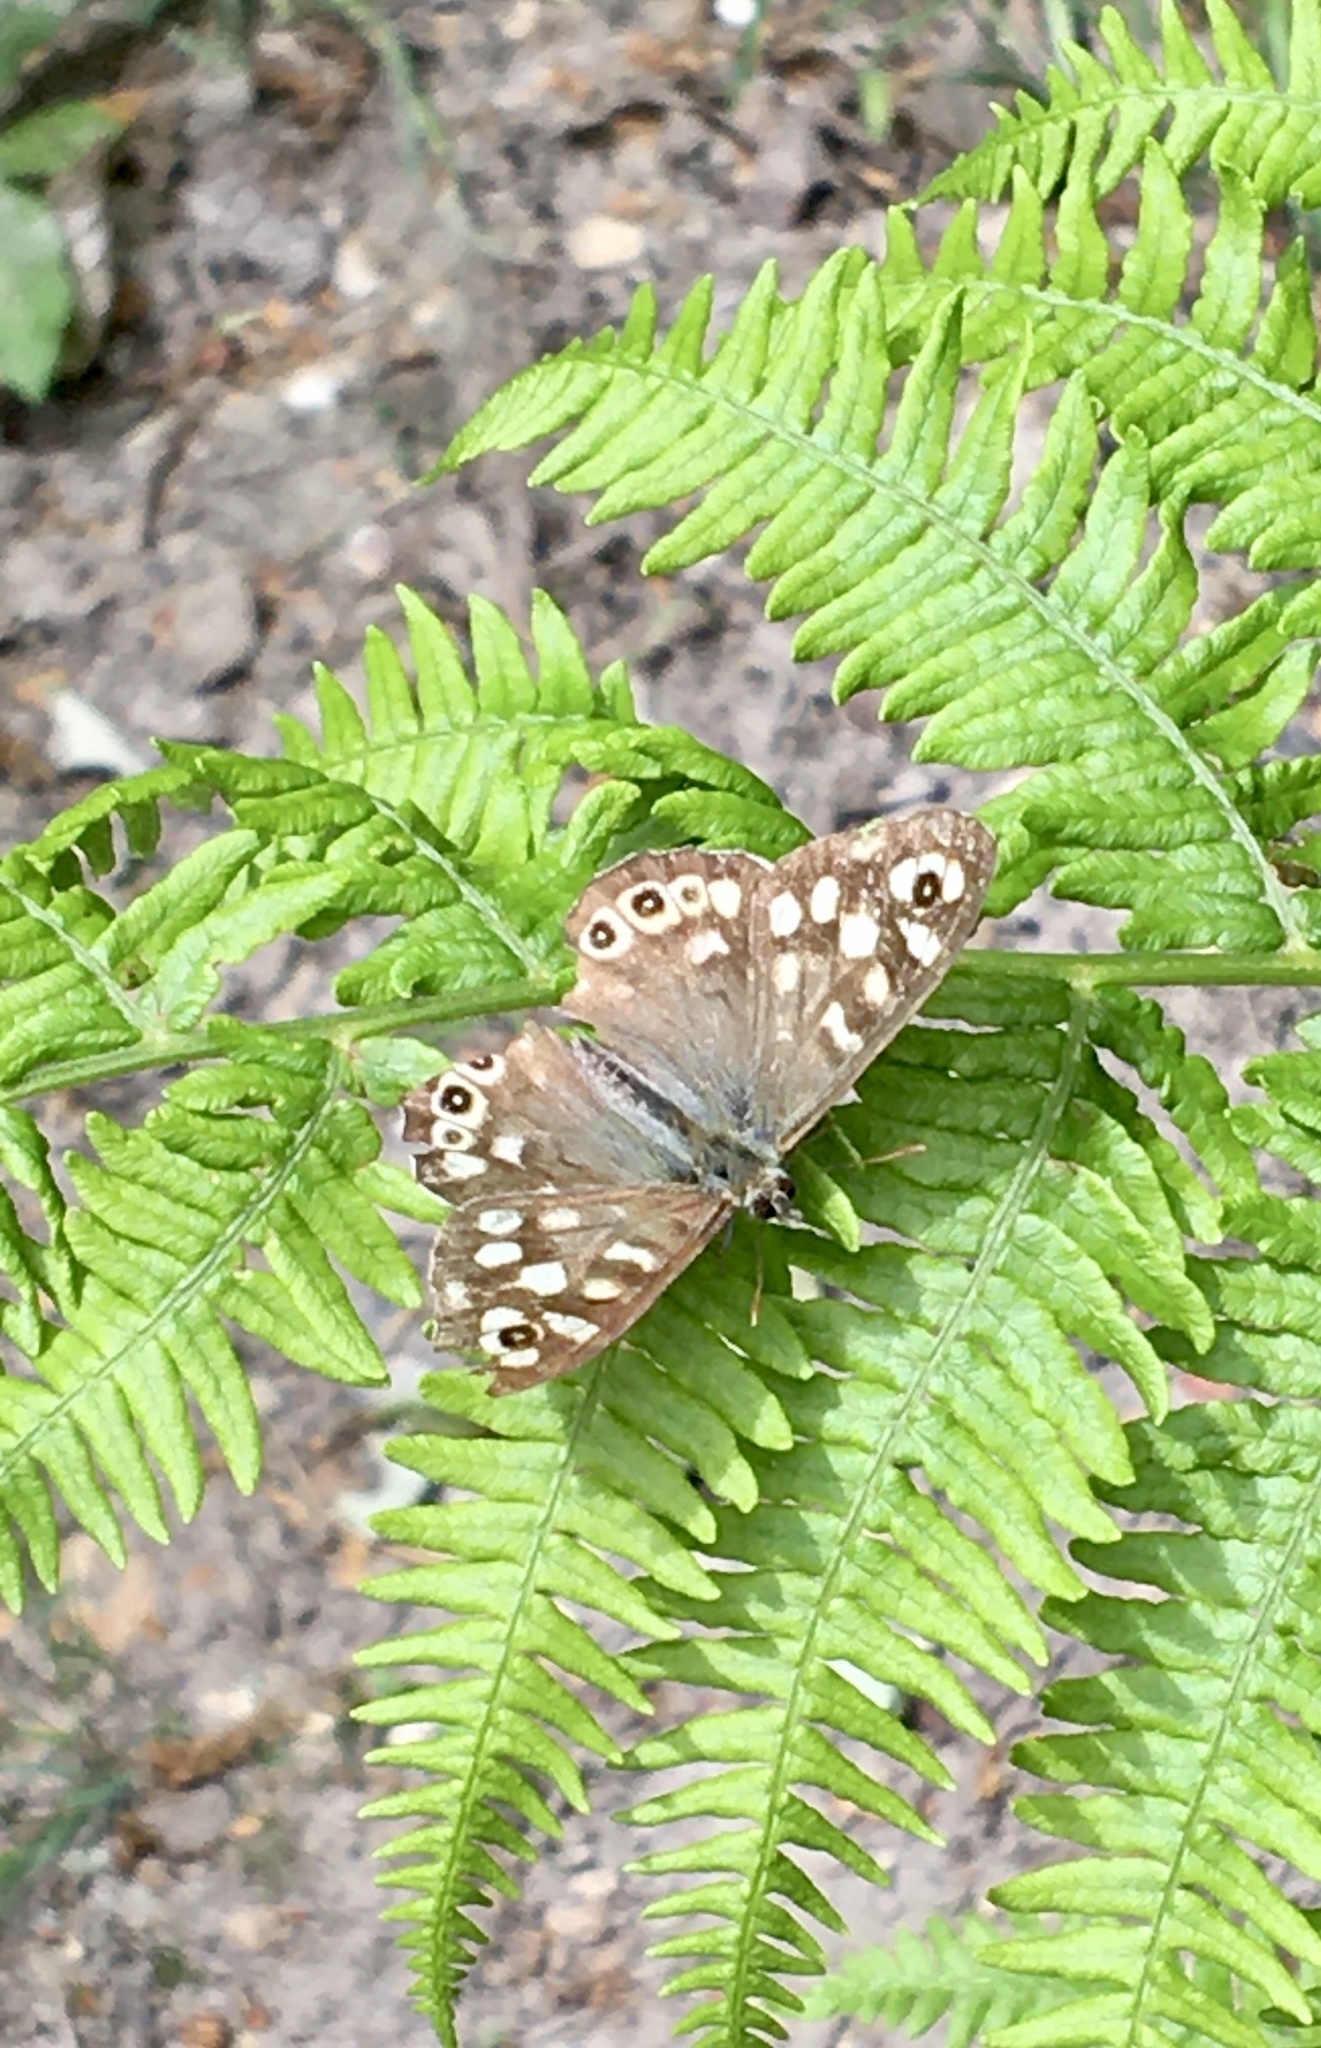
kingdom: Animalia
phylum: Arthropoda
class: Insecta
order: Lepidoptera
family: Nymphalidae
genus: Pararge
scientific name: Pararge aegeria
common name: Speckled wood
